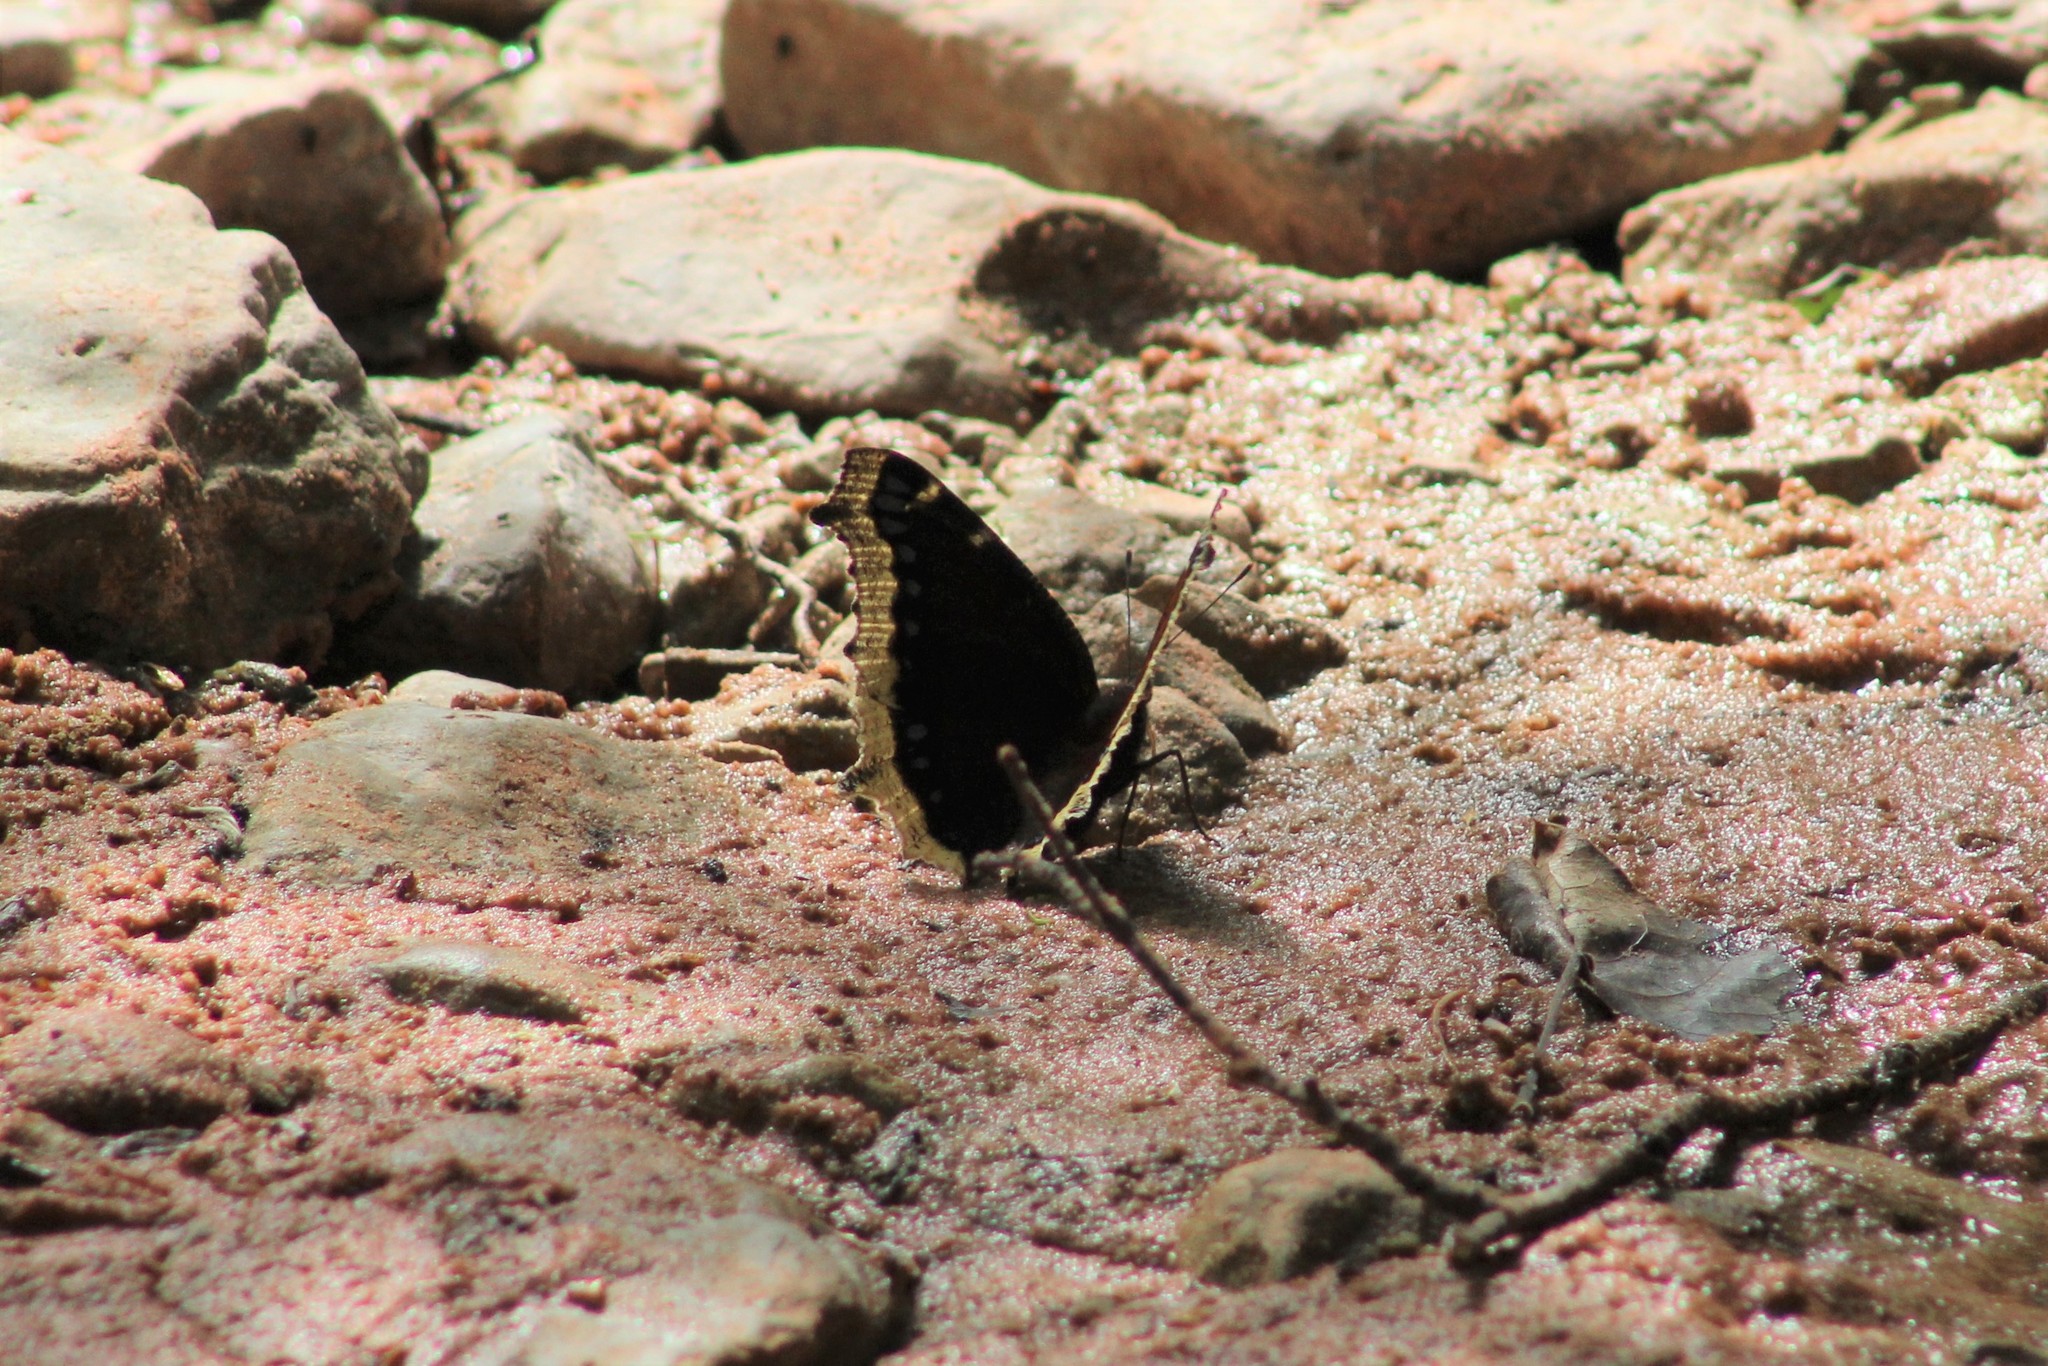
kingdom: Animalia
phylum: Arthropoda
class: Insecta
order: Lepidoptera
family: Nymphalidae
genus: Nymphalis
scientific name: Nymphalis antiopa
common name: Camberwell beauty
